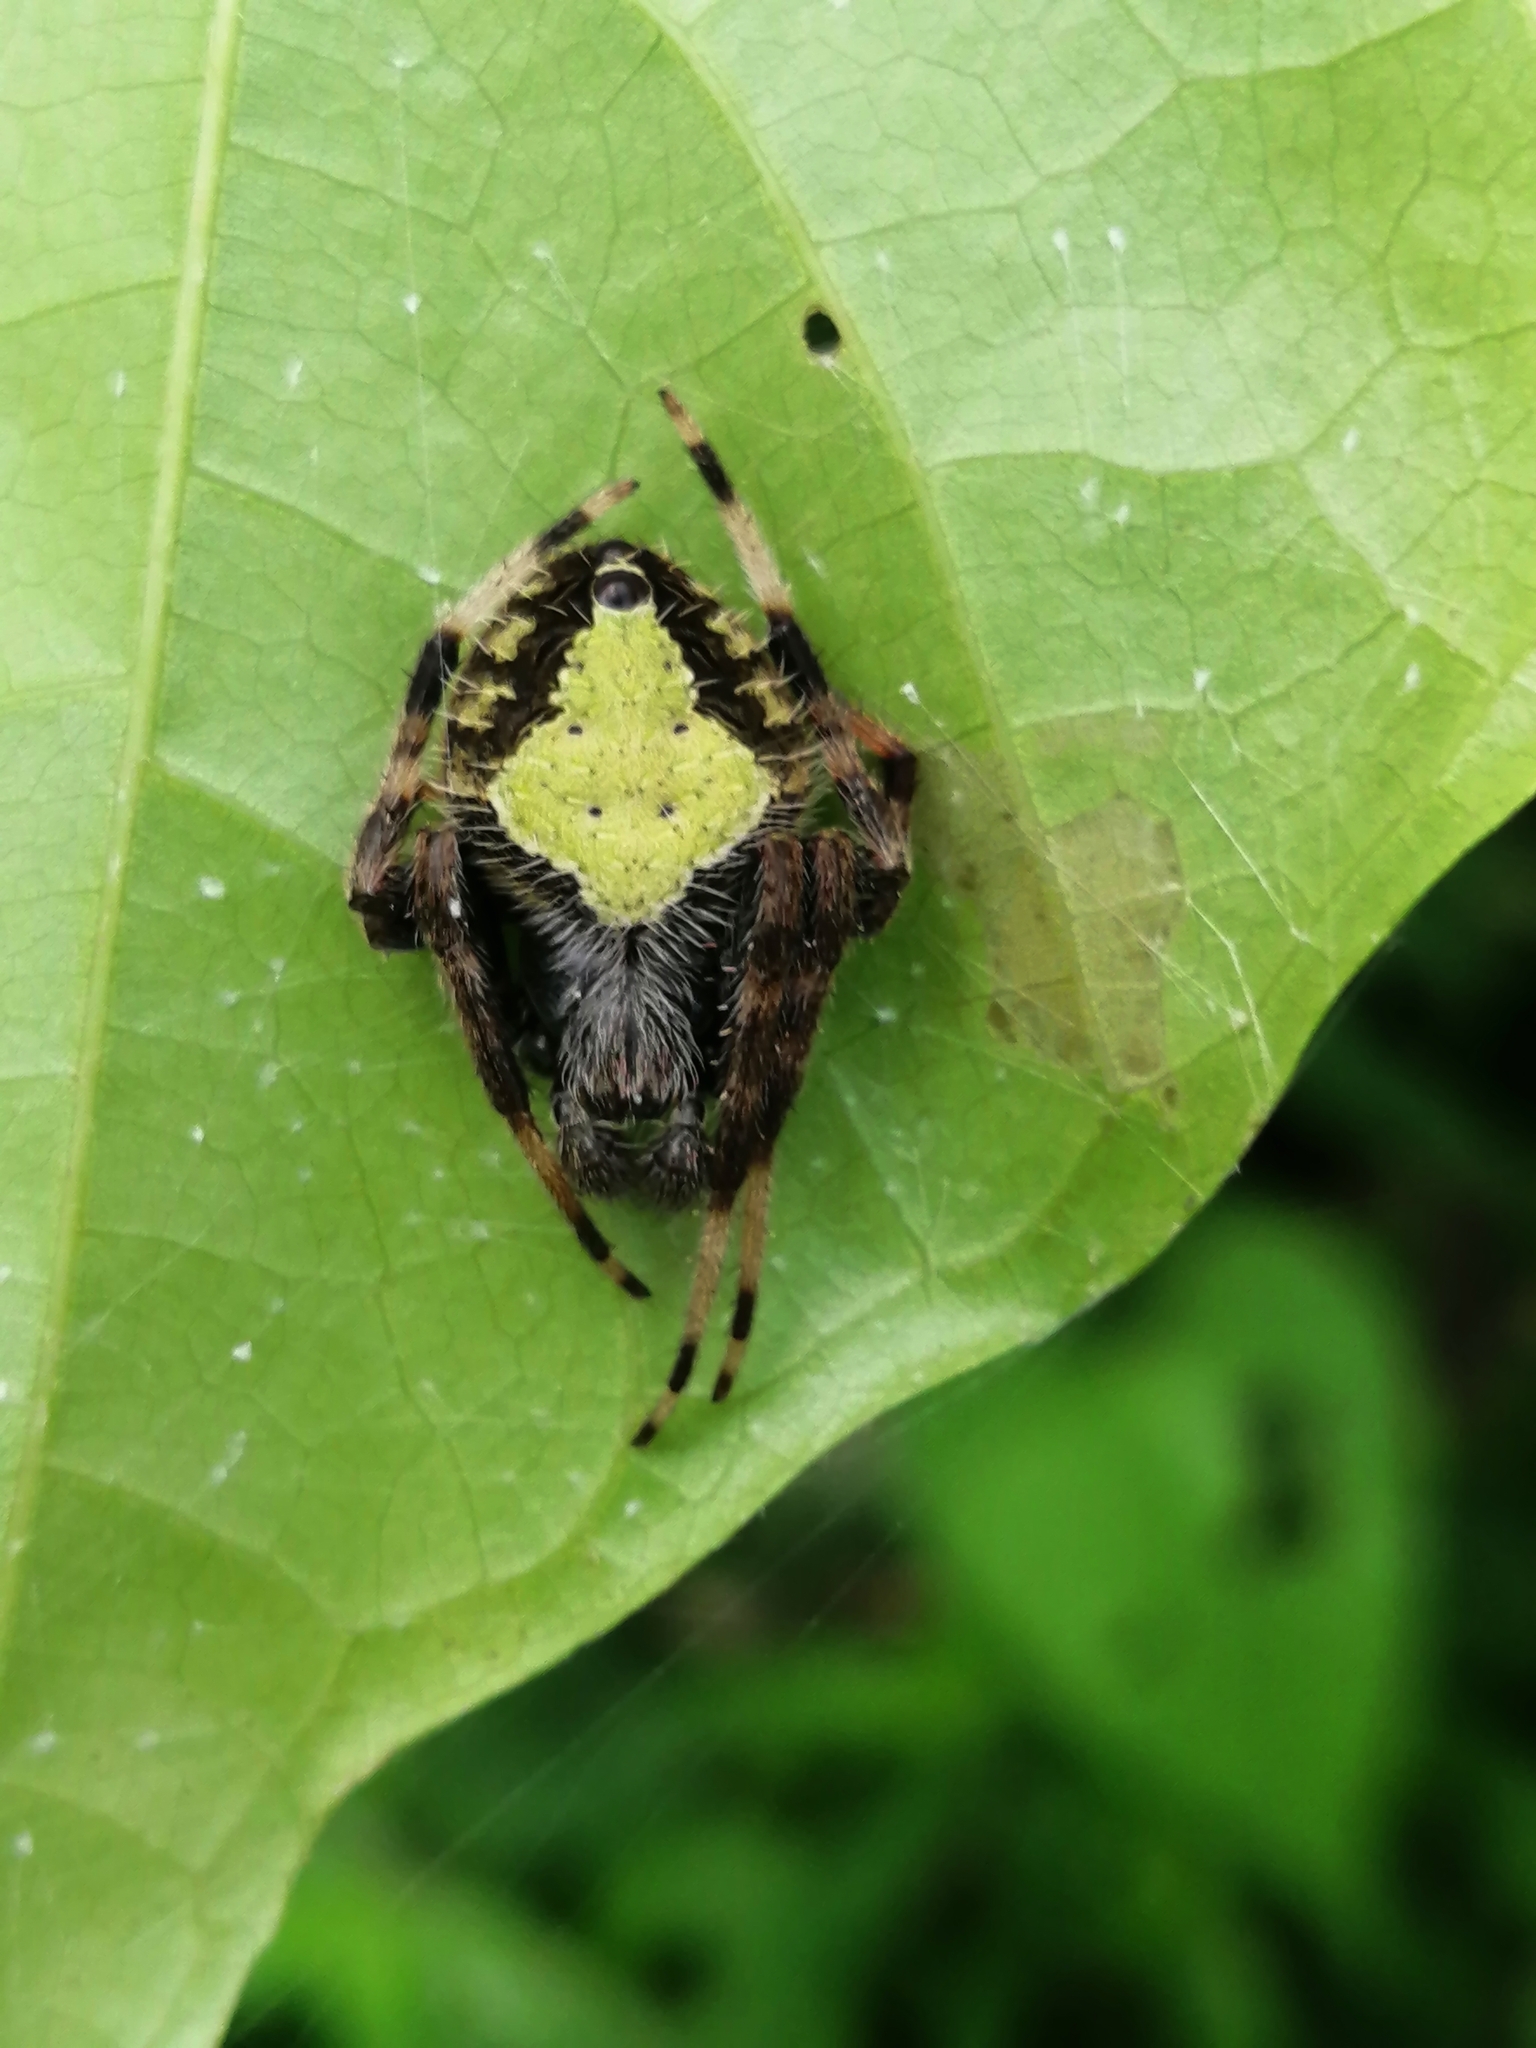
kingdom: Animalia
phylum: Arthropoda
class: Arachnida
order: Araneae
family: Araneidae
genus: Eriophora
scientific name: Eriophora ravilla
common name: Orb weavers
